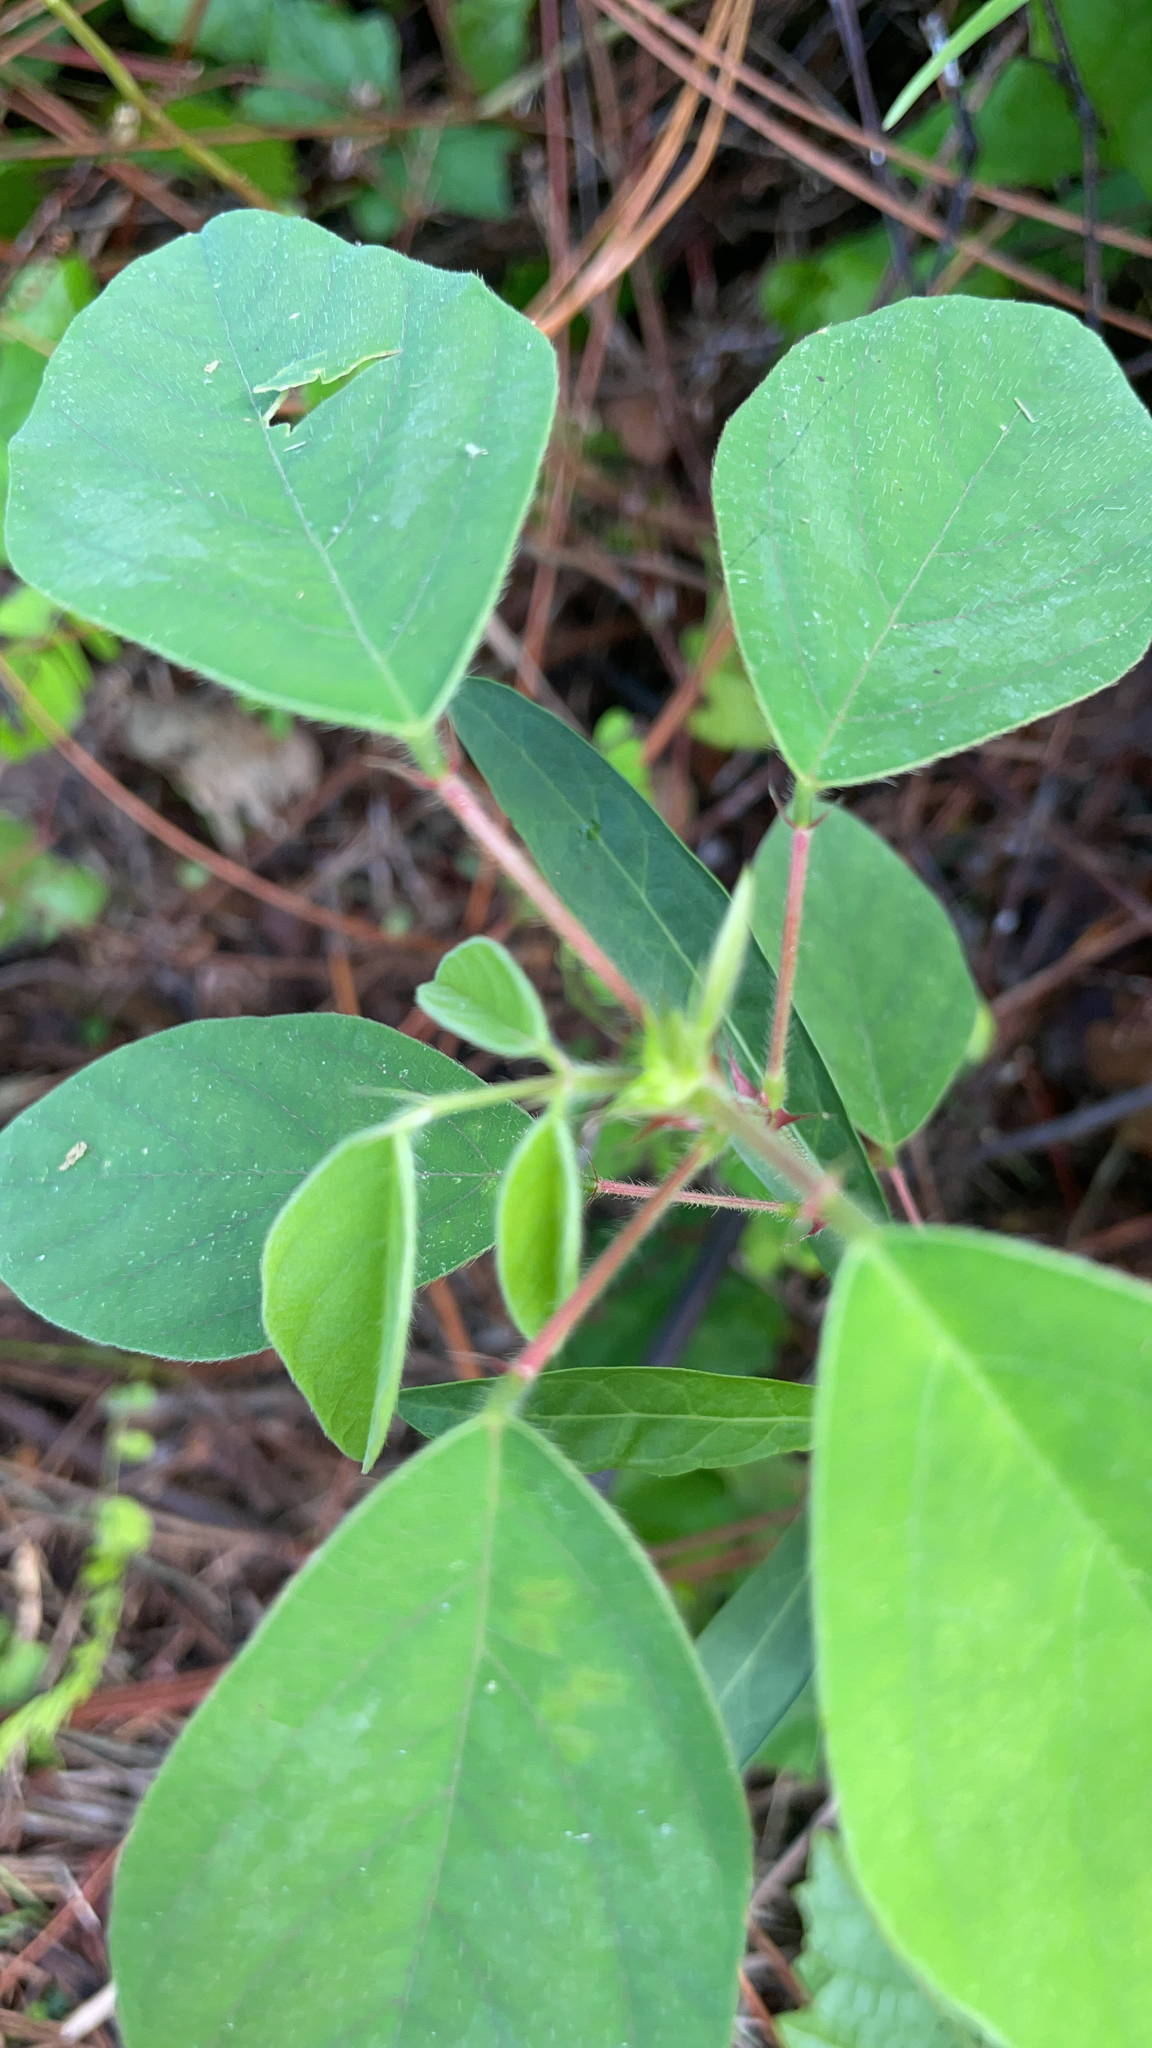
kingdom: Plantae
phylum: Tracheophyta
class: Magnoliopsida
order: Fabales
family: Fabaceae
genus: Desmodium
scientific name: Desmodium tortuosum
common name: Dixie ticktrefoil
